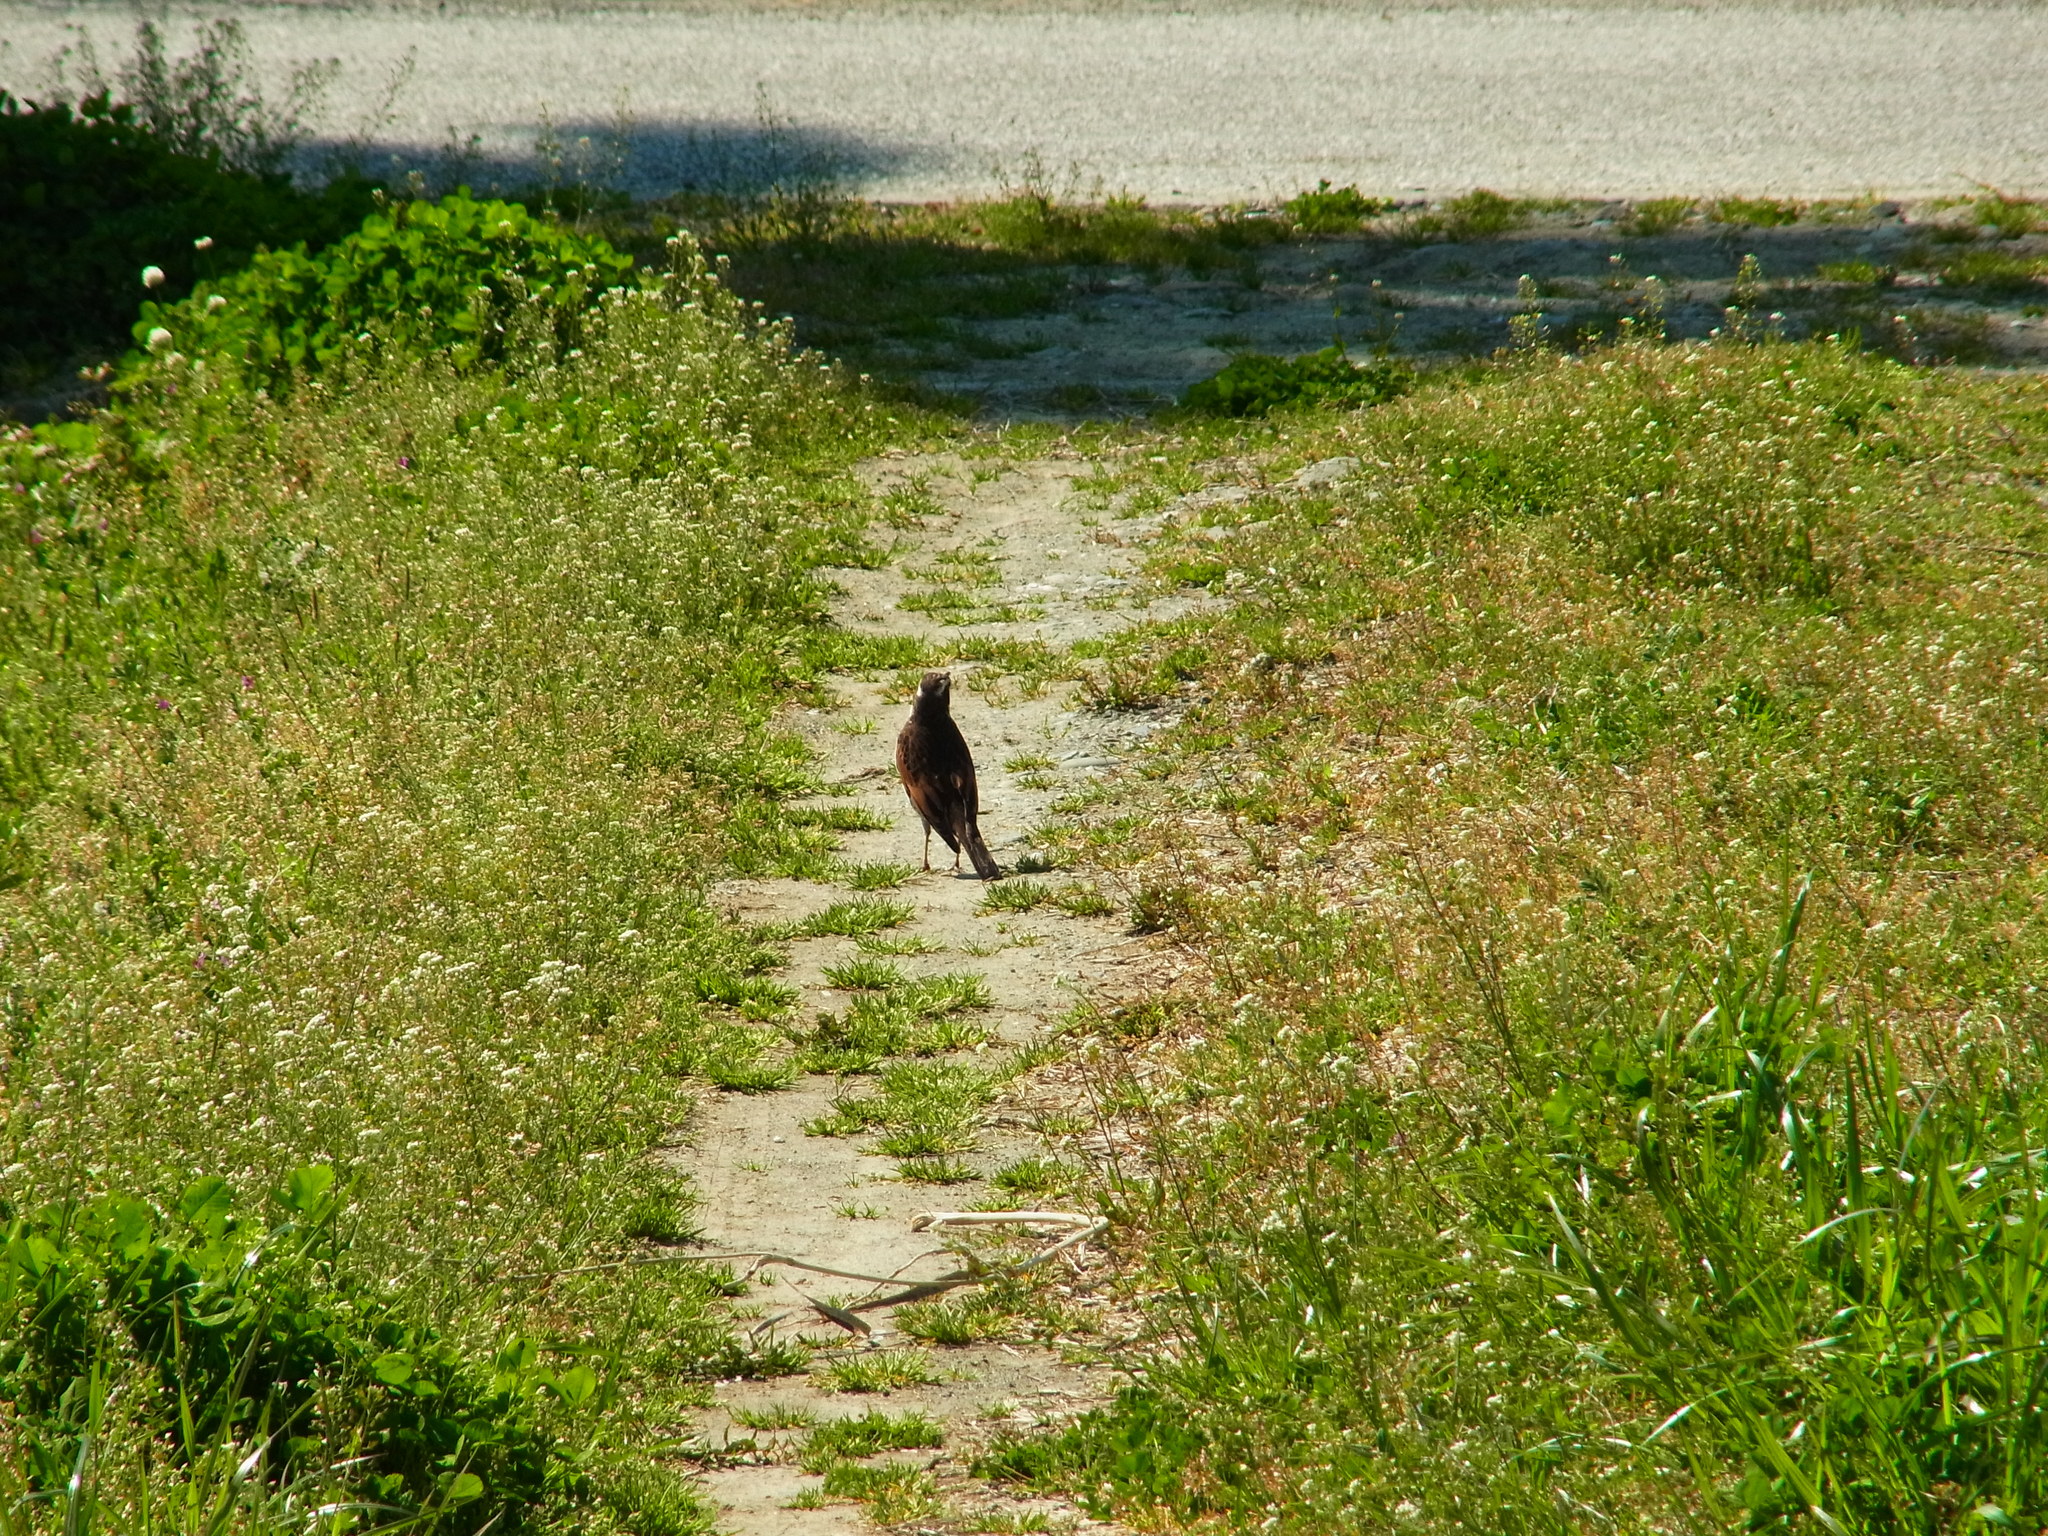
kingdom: Animalia
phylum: Chordata
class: Aves
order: Passeriformes
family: Turdidae
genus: Turdus
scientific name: Turdus eunomus
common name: Dusky thrush
